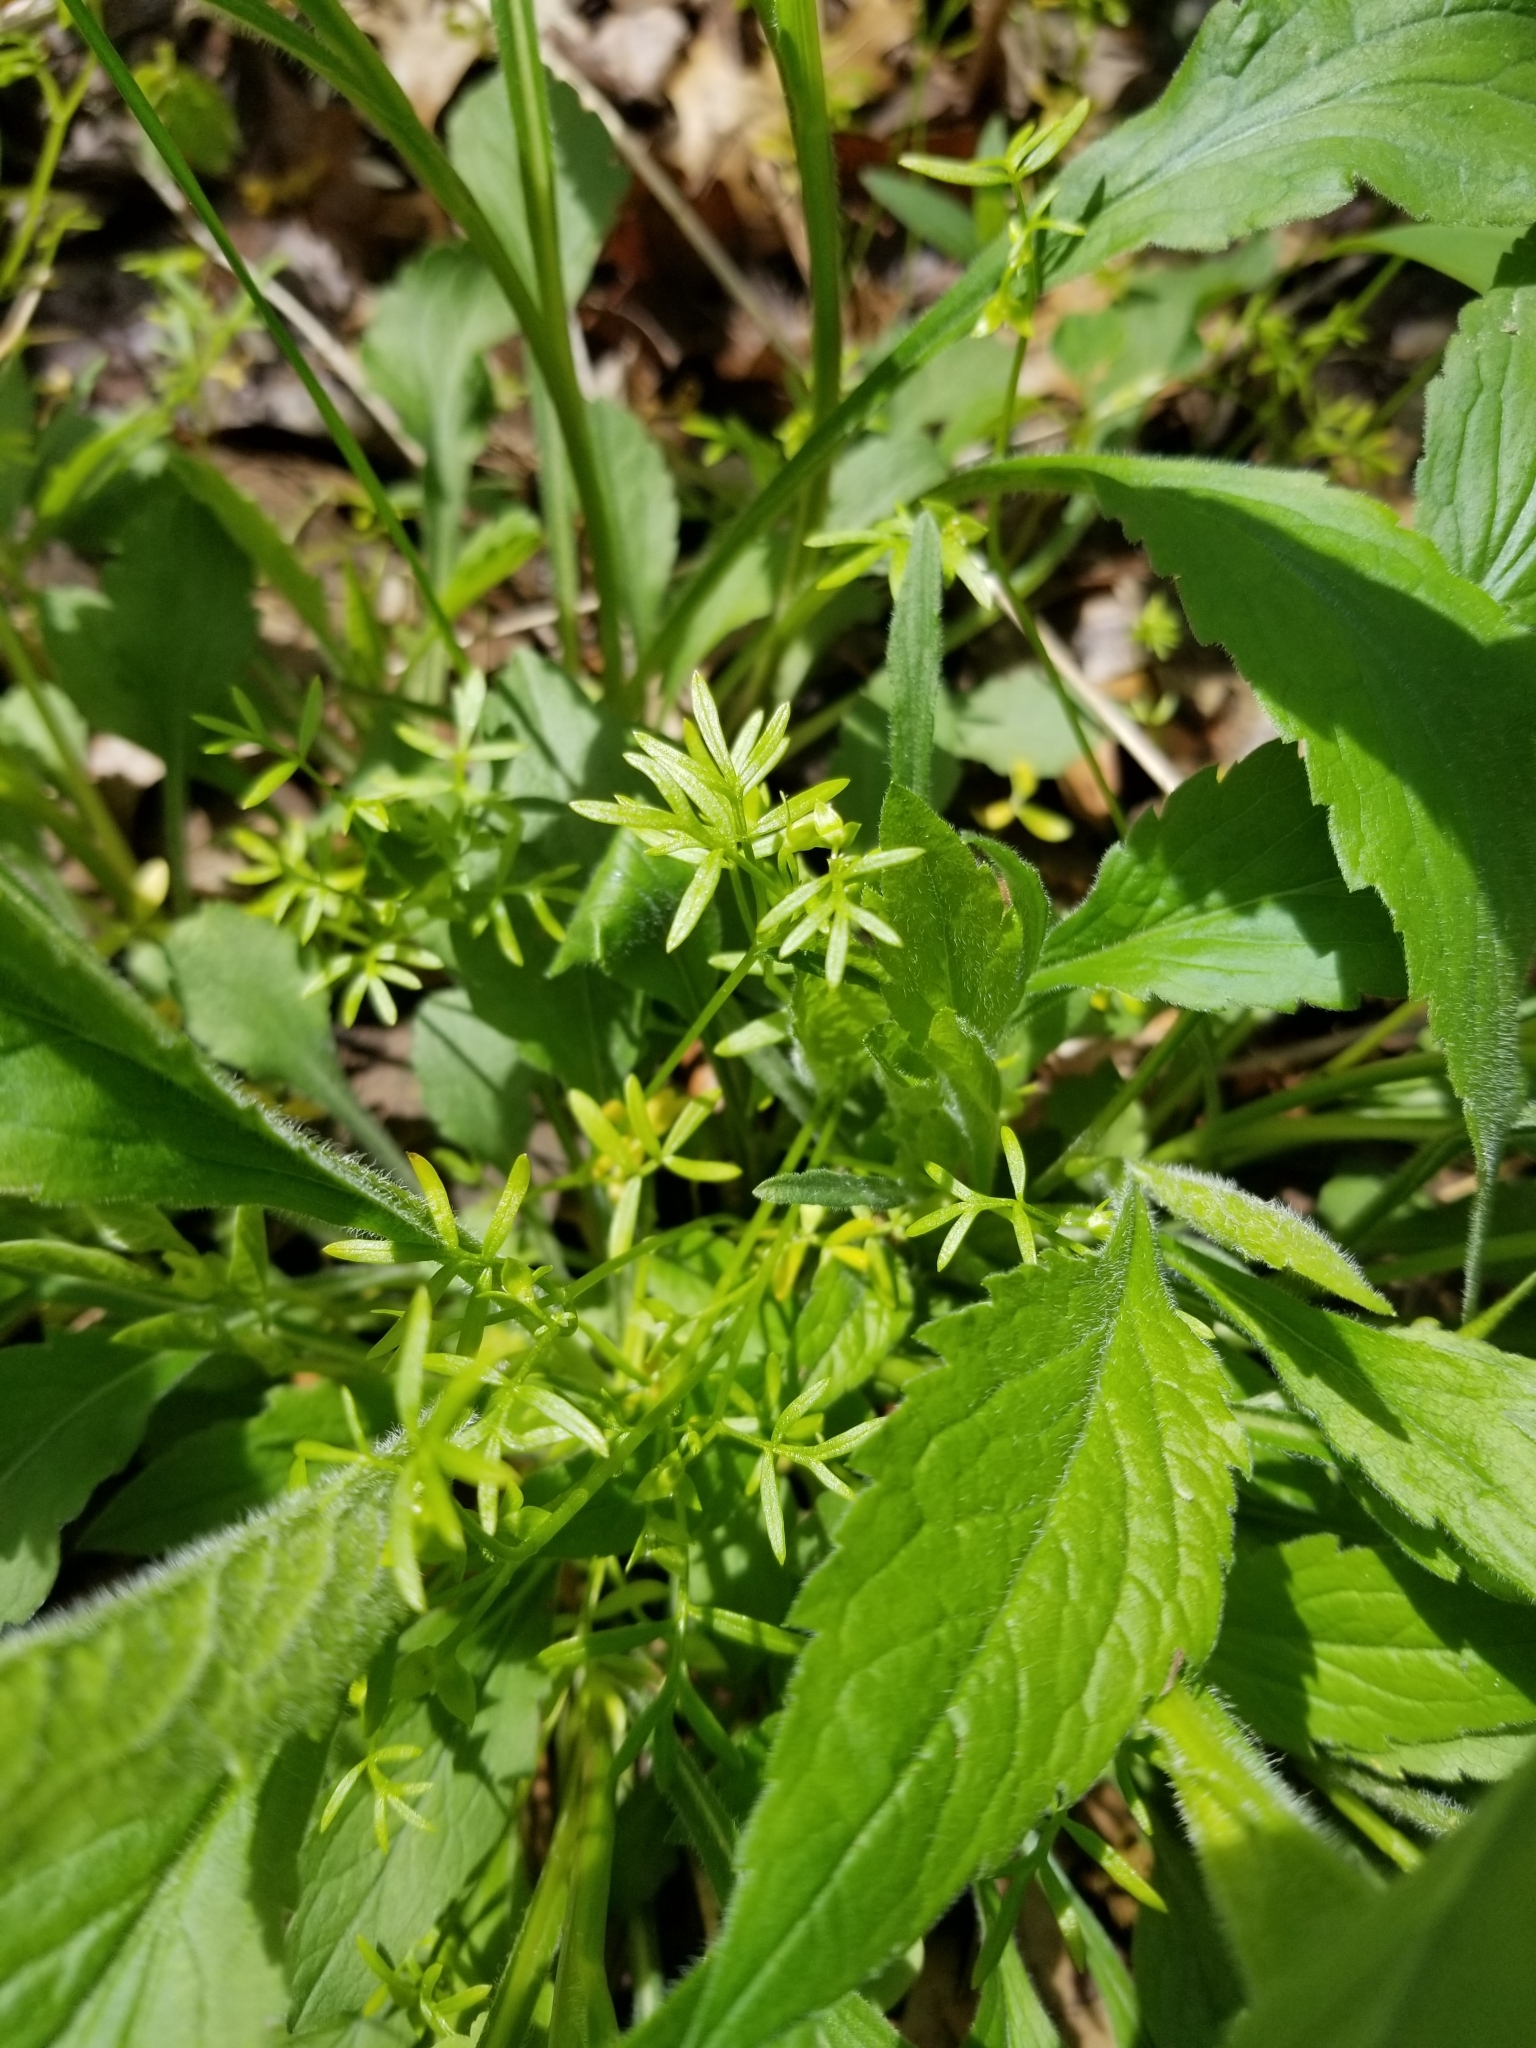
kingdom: Plantae
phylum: Tracheophyta
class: Magnoliopsida
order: Brassicales
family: Limnanthaceae
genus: Floerkea
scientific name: Floerkea proserpinacoides
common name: False mermaid
